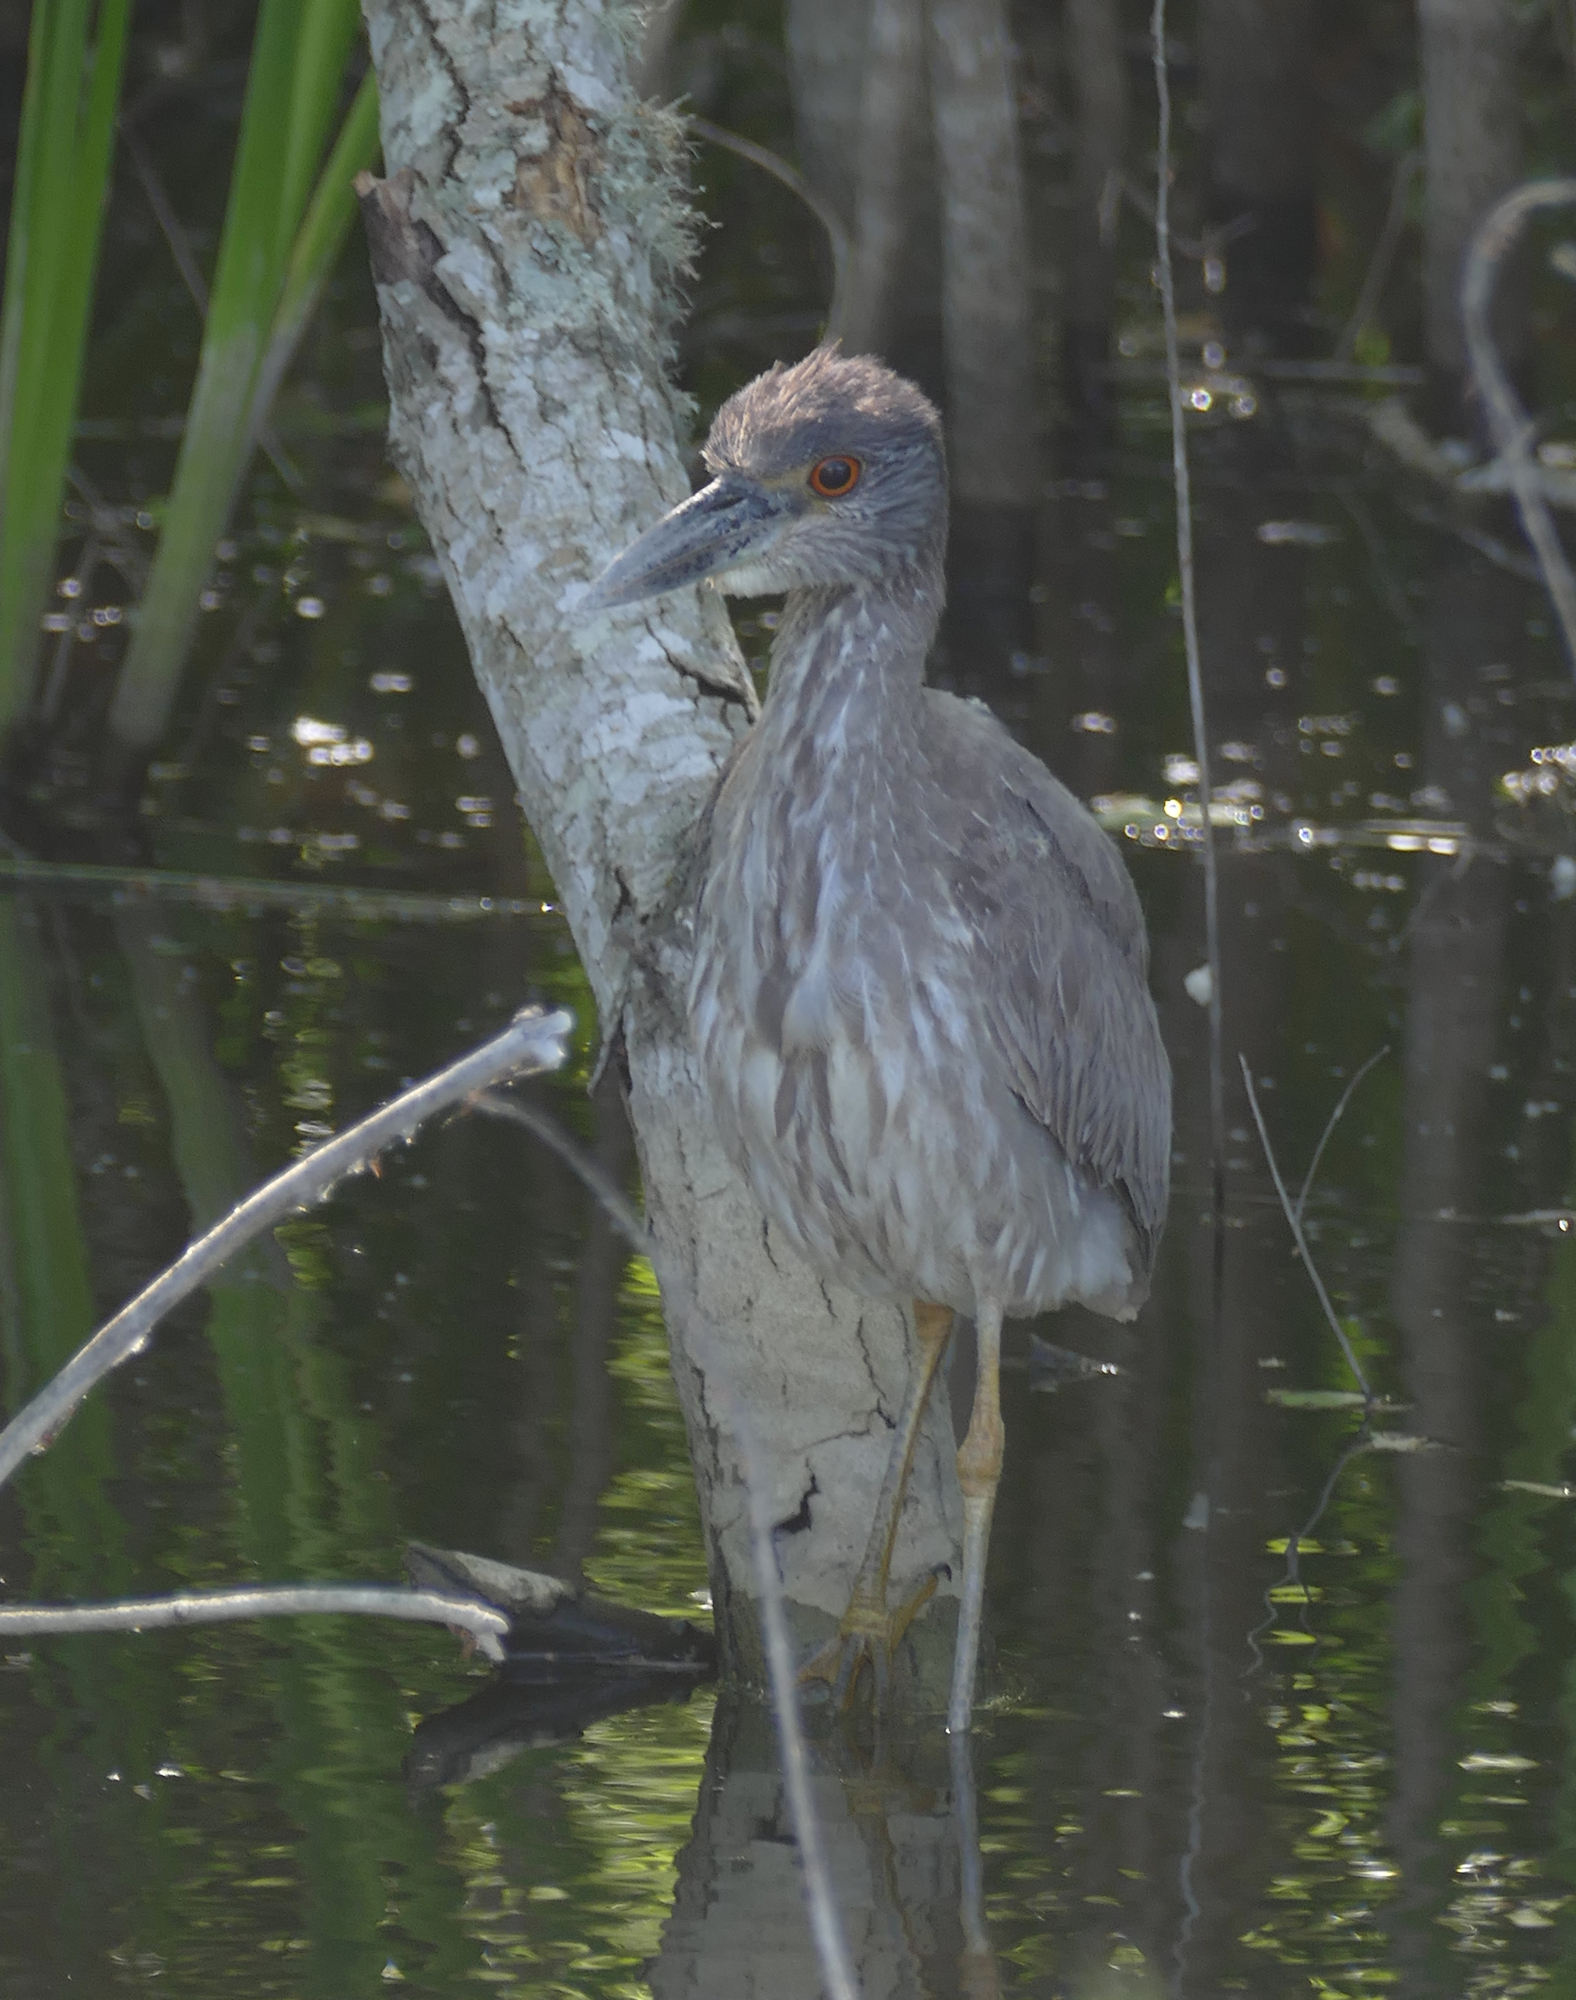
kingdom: Animalia
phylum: Chordata
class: Aves
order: Pelecaniformes
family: Ardeidae
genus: Nyctanassa
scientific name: Nyctanassa violacea
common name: Yellow-crowned night heron
